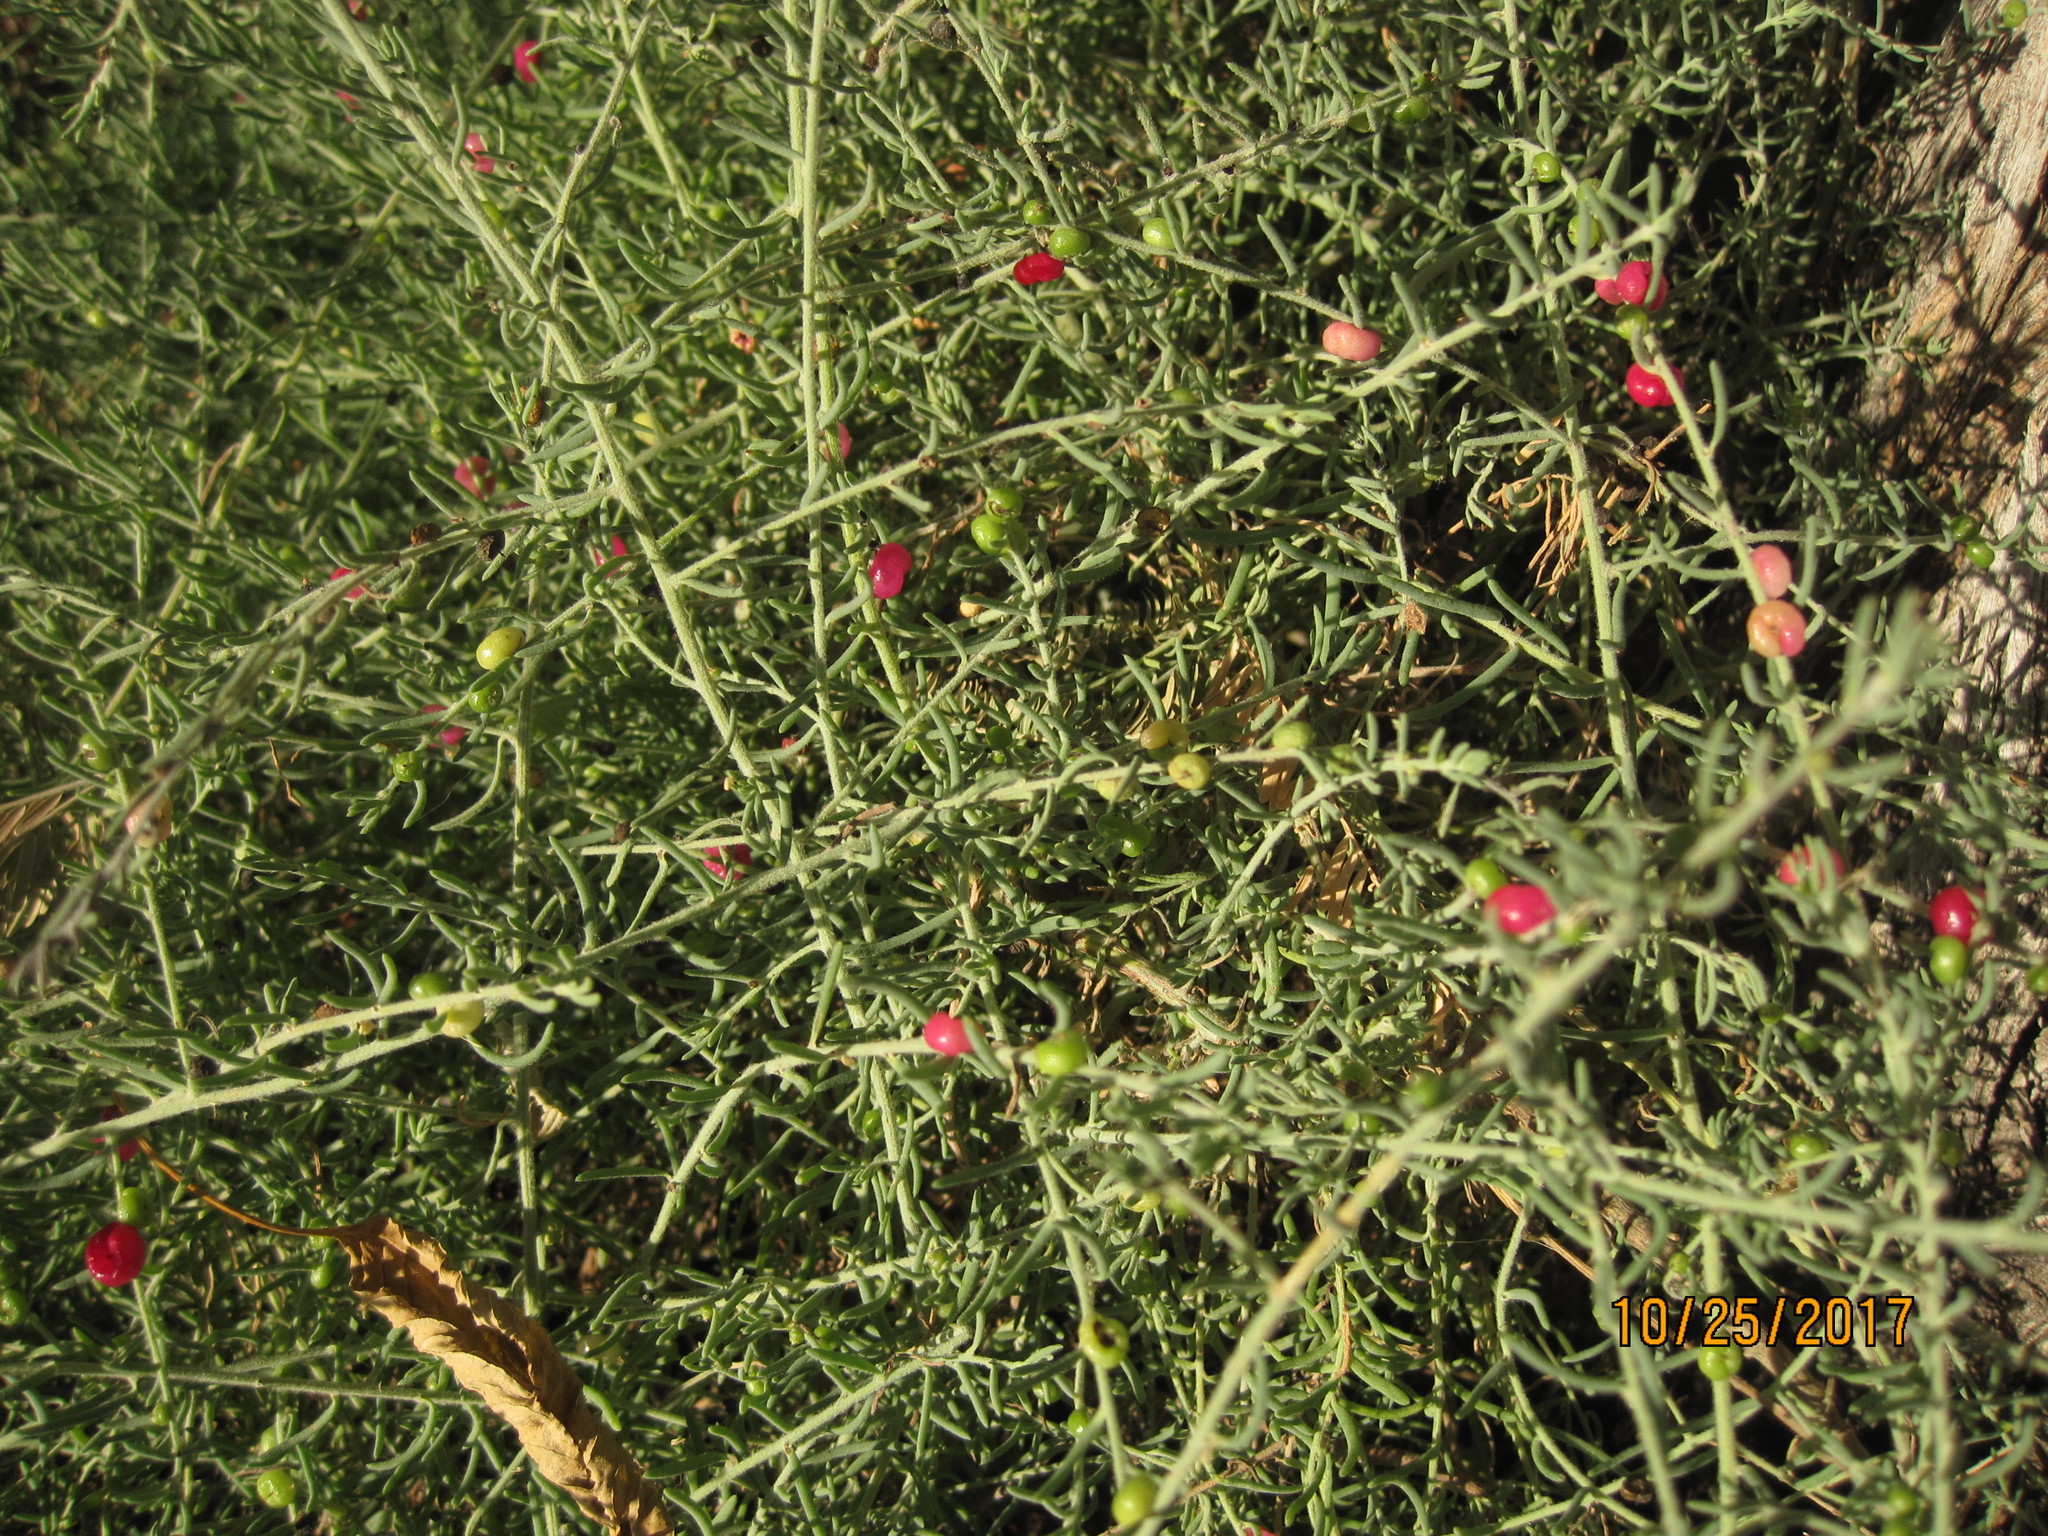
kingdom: Plantae
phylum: Tracheophyta
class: Magnoliopsida
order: Caryophyllales
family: Amaranthaceae
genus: Enchylaena
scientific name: Enchylaena tomentosa
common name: Ruby saltbush
